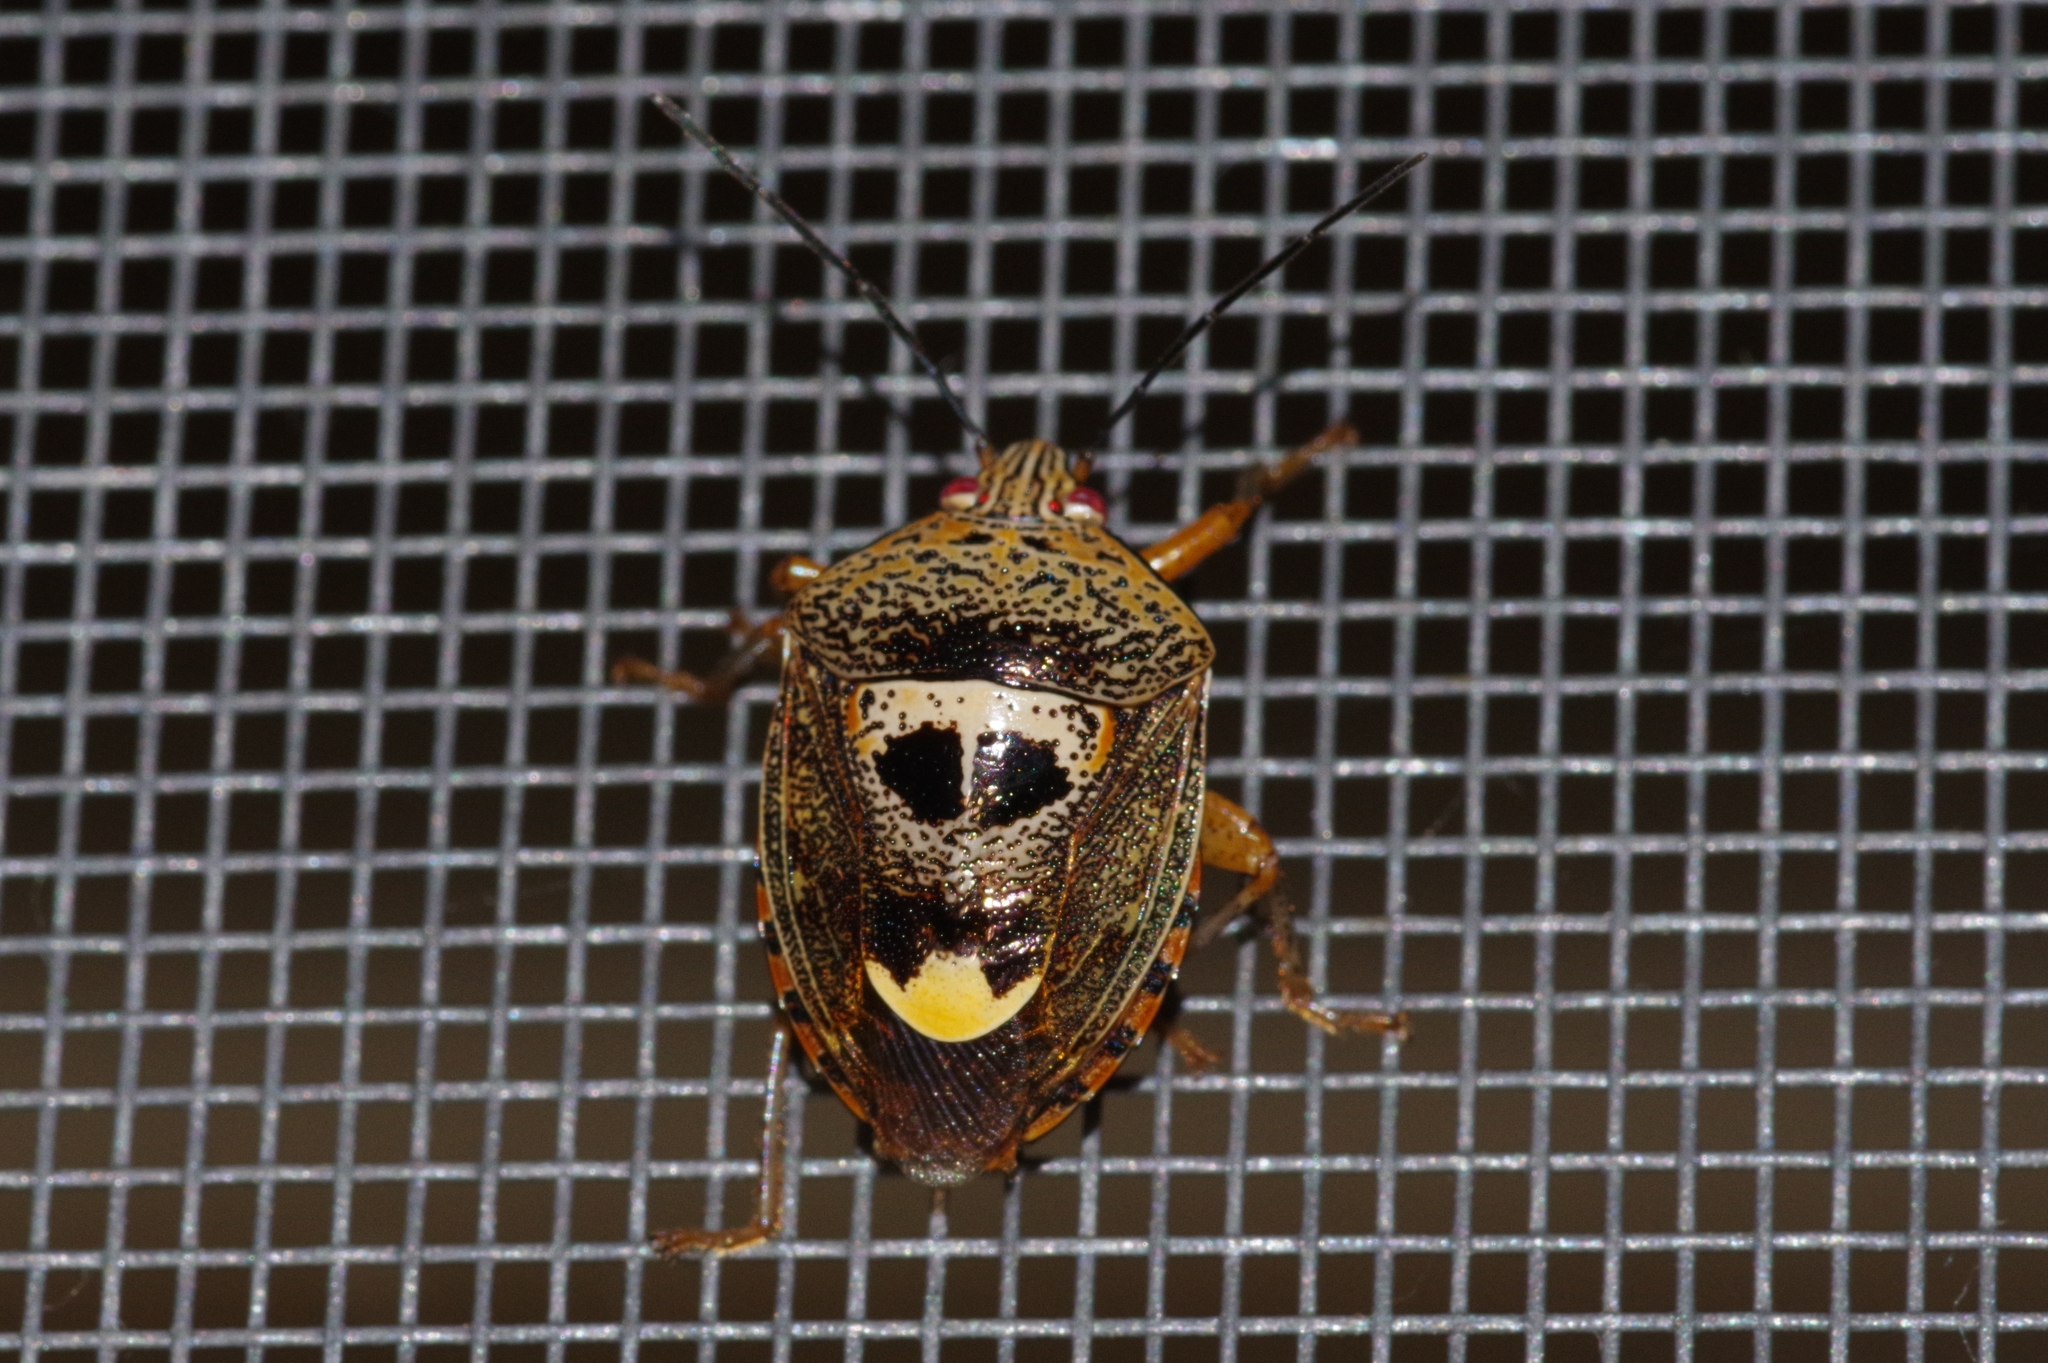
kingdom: Animalia
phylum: Arthropoda
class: Insecta
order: Hemiptera
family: Pentatomidae
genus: Axiagastus
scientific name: Axiagastus rosmarus
